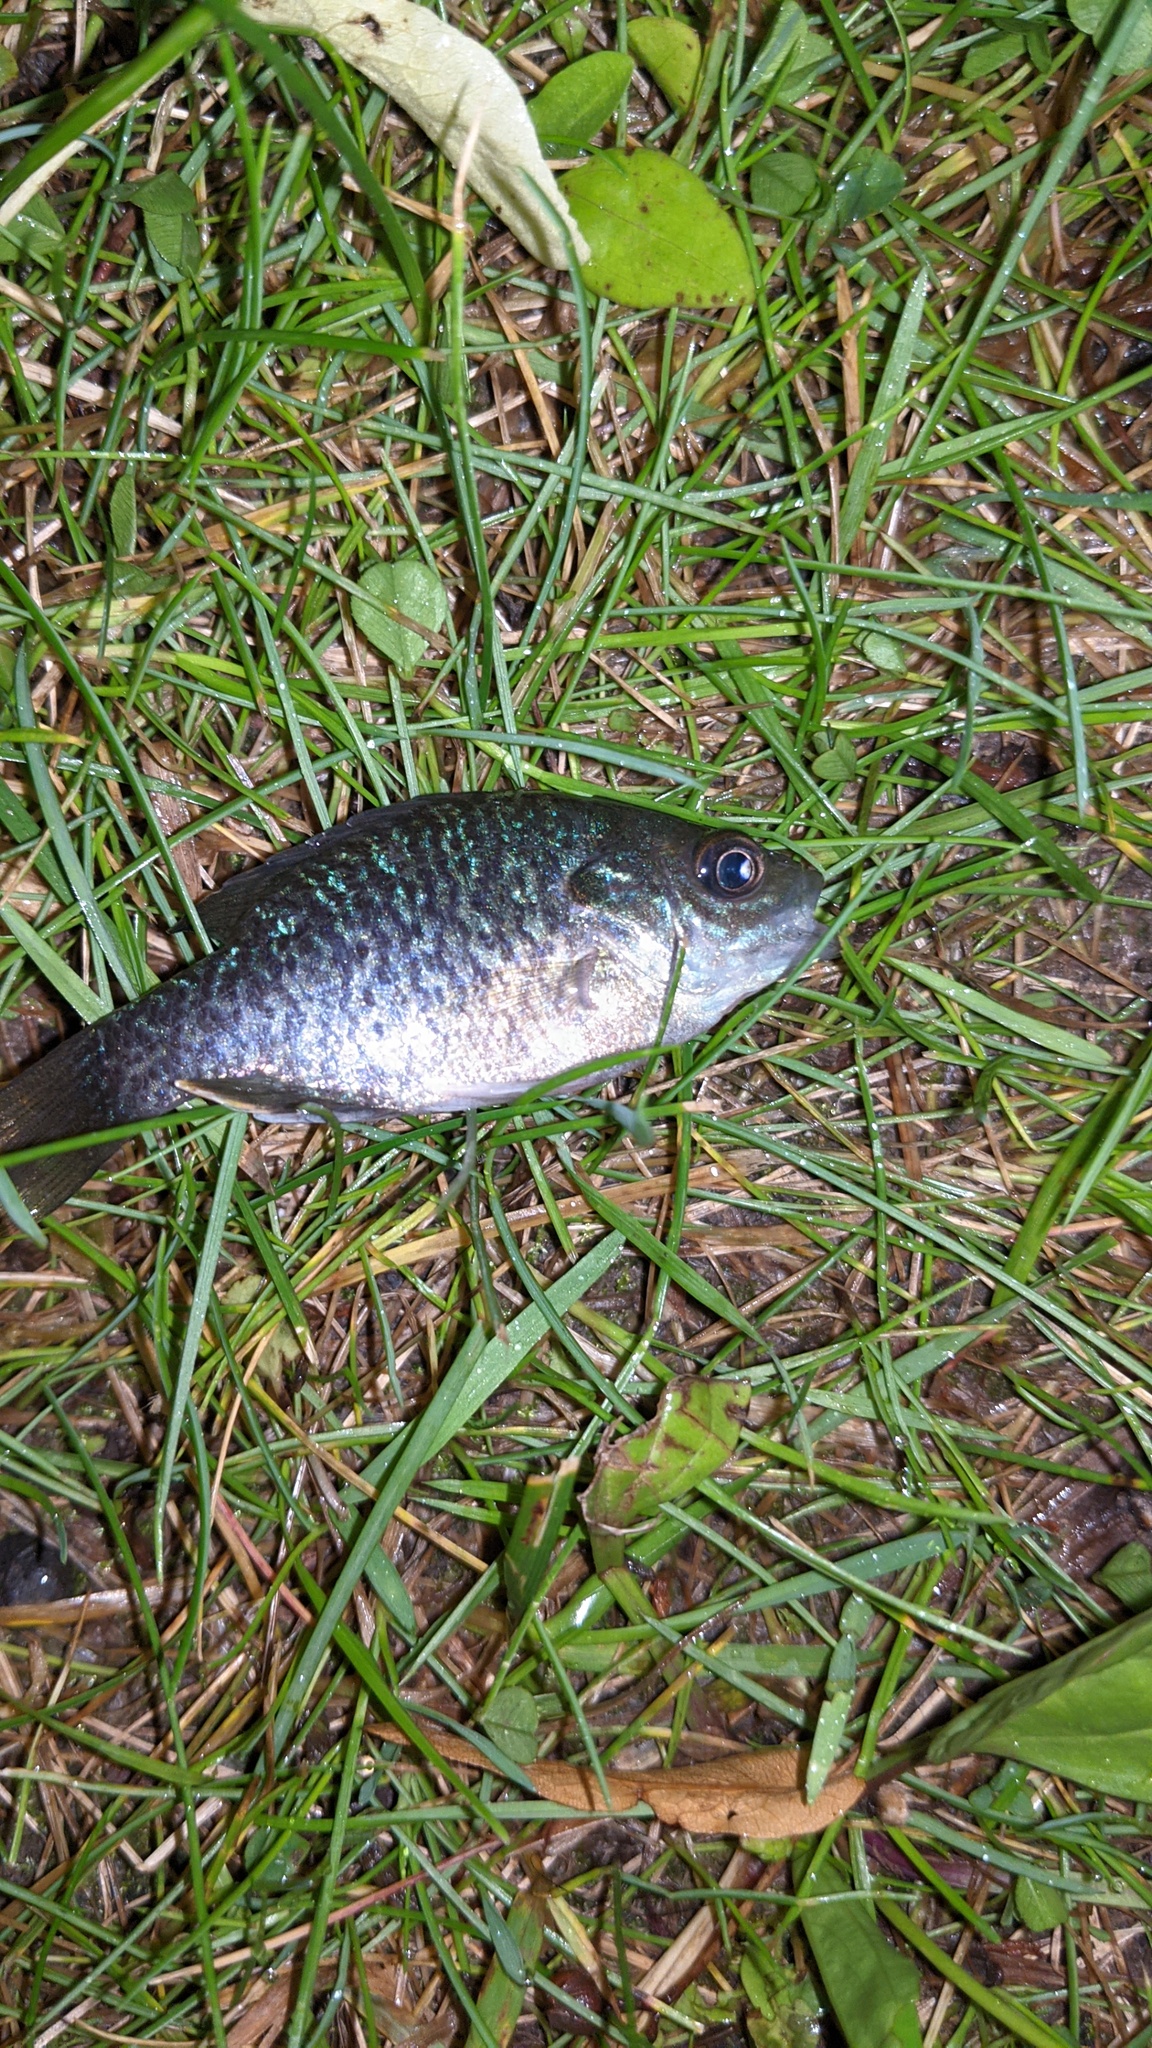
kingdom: Animalia
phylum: Chordata
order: Perciformes
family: Centrarchidae
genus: Lepomis
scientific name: Lepomis
